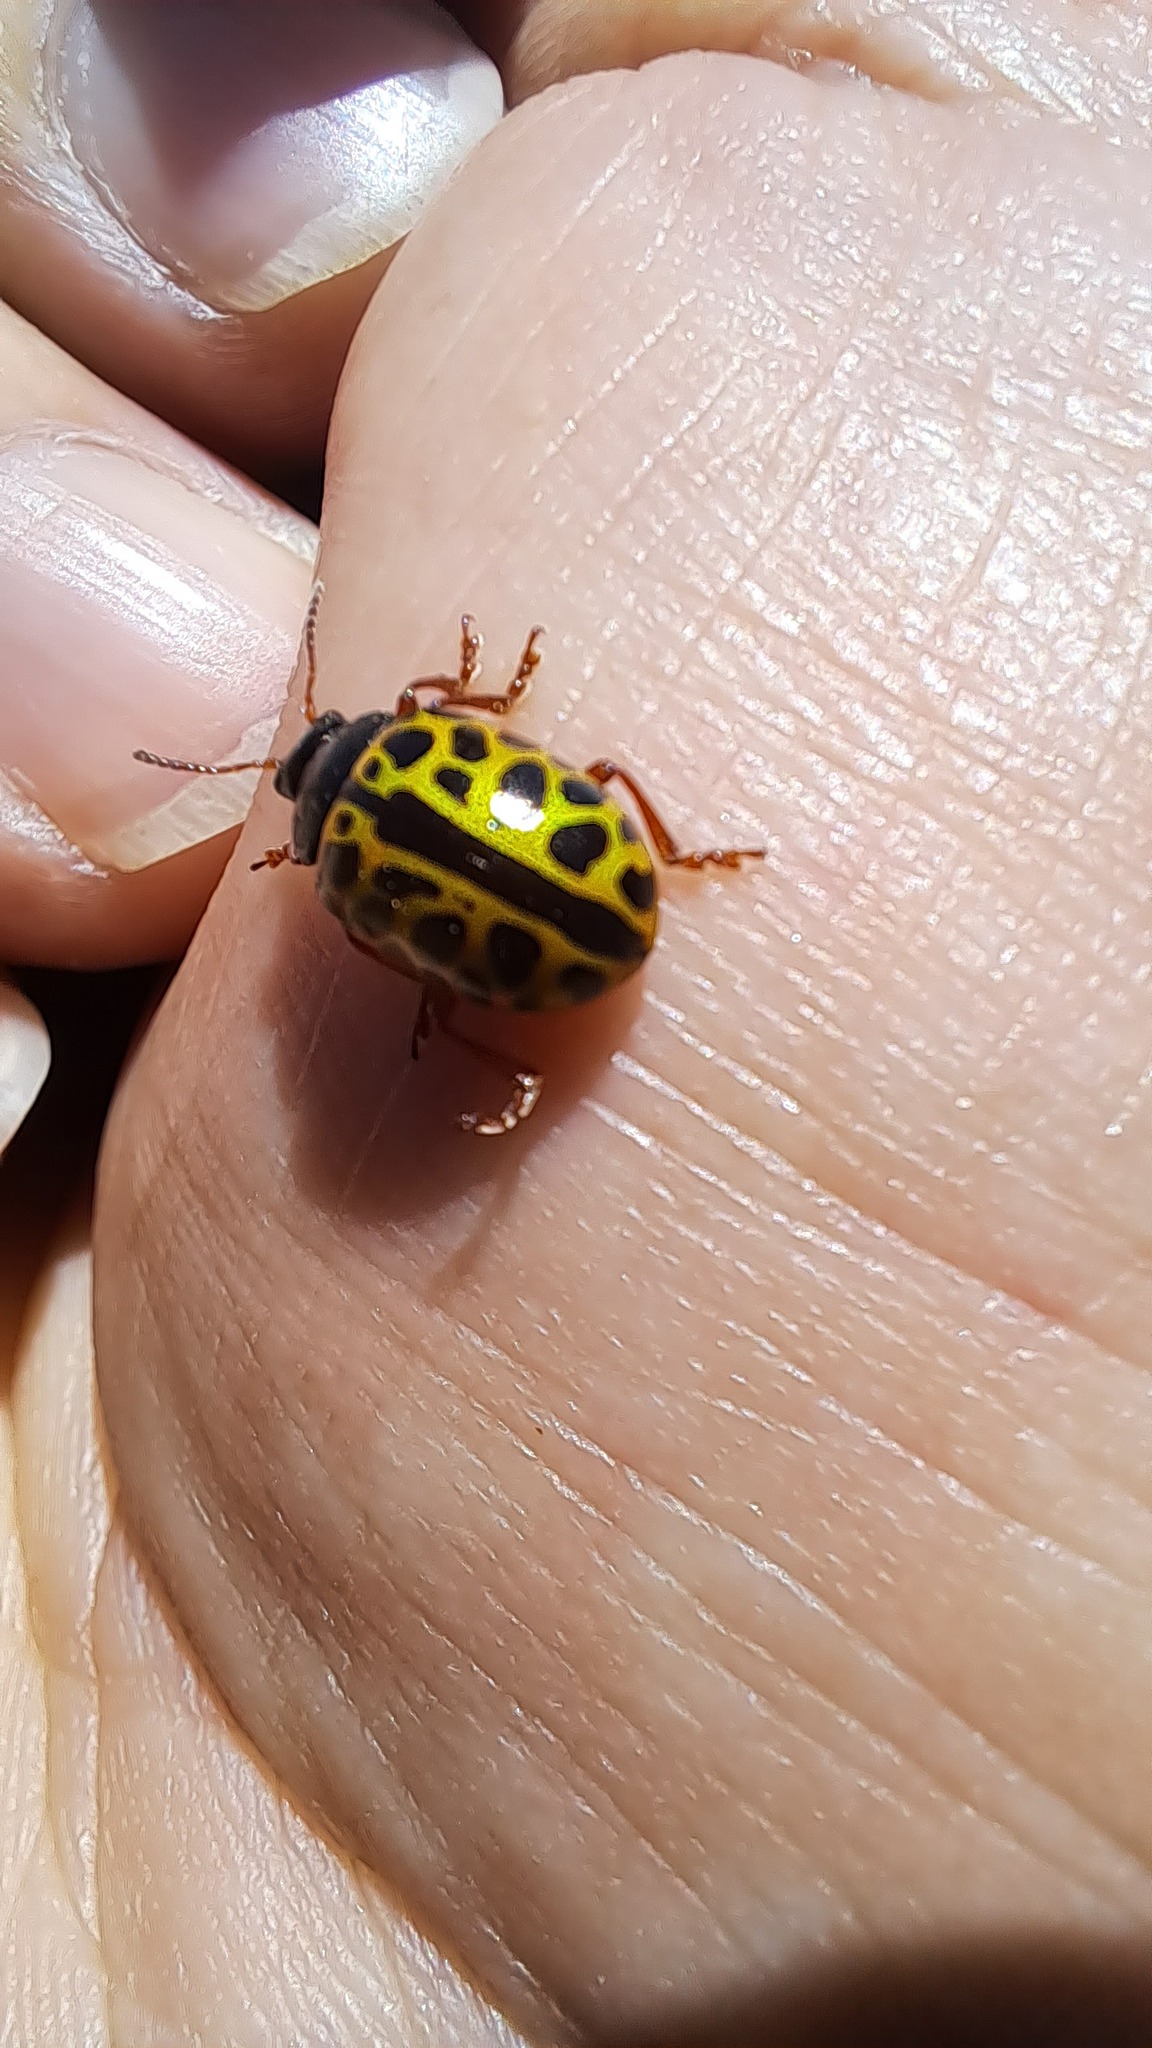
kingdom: Animalia
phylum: Arthropoda
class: Insecta
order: Coleoptera
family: Chrysomelidae
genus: Calligrapha
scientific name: Calligrapha polyspila
